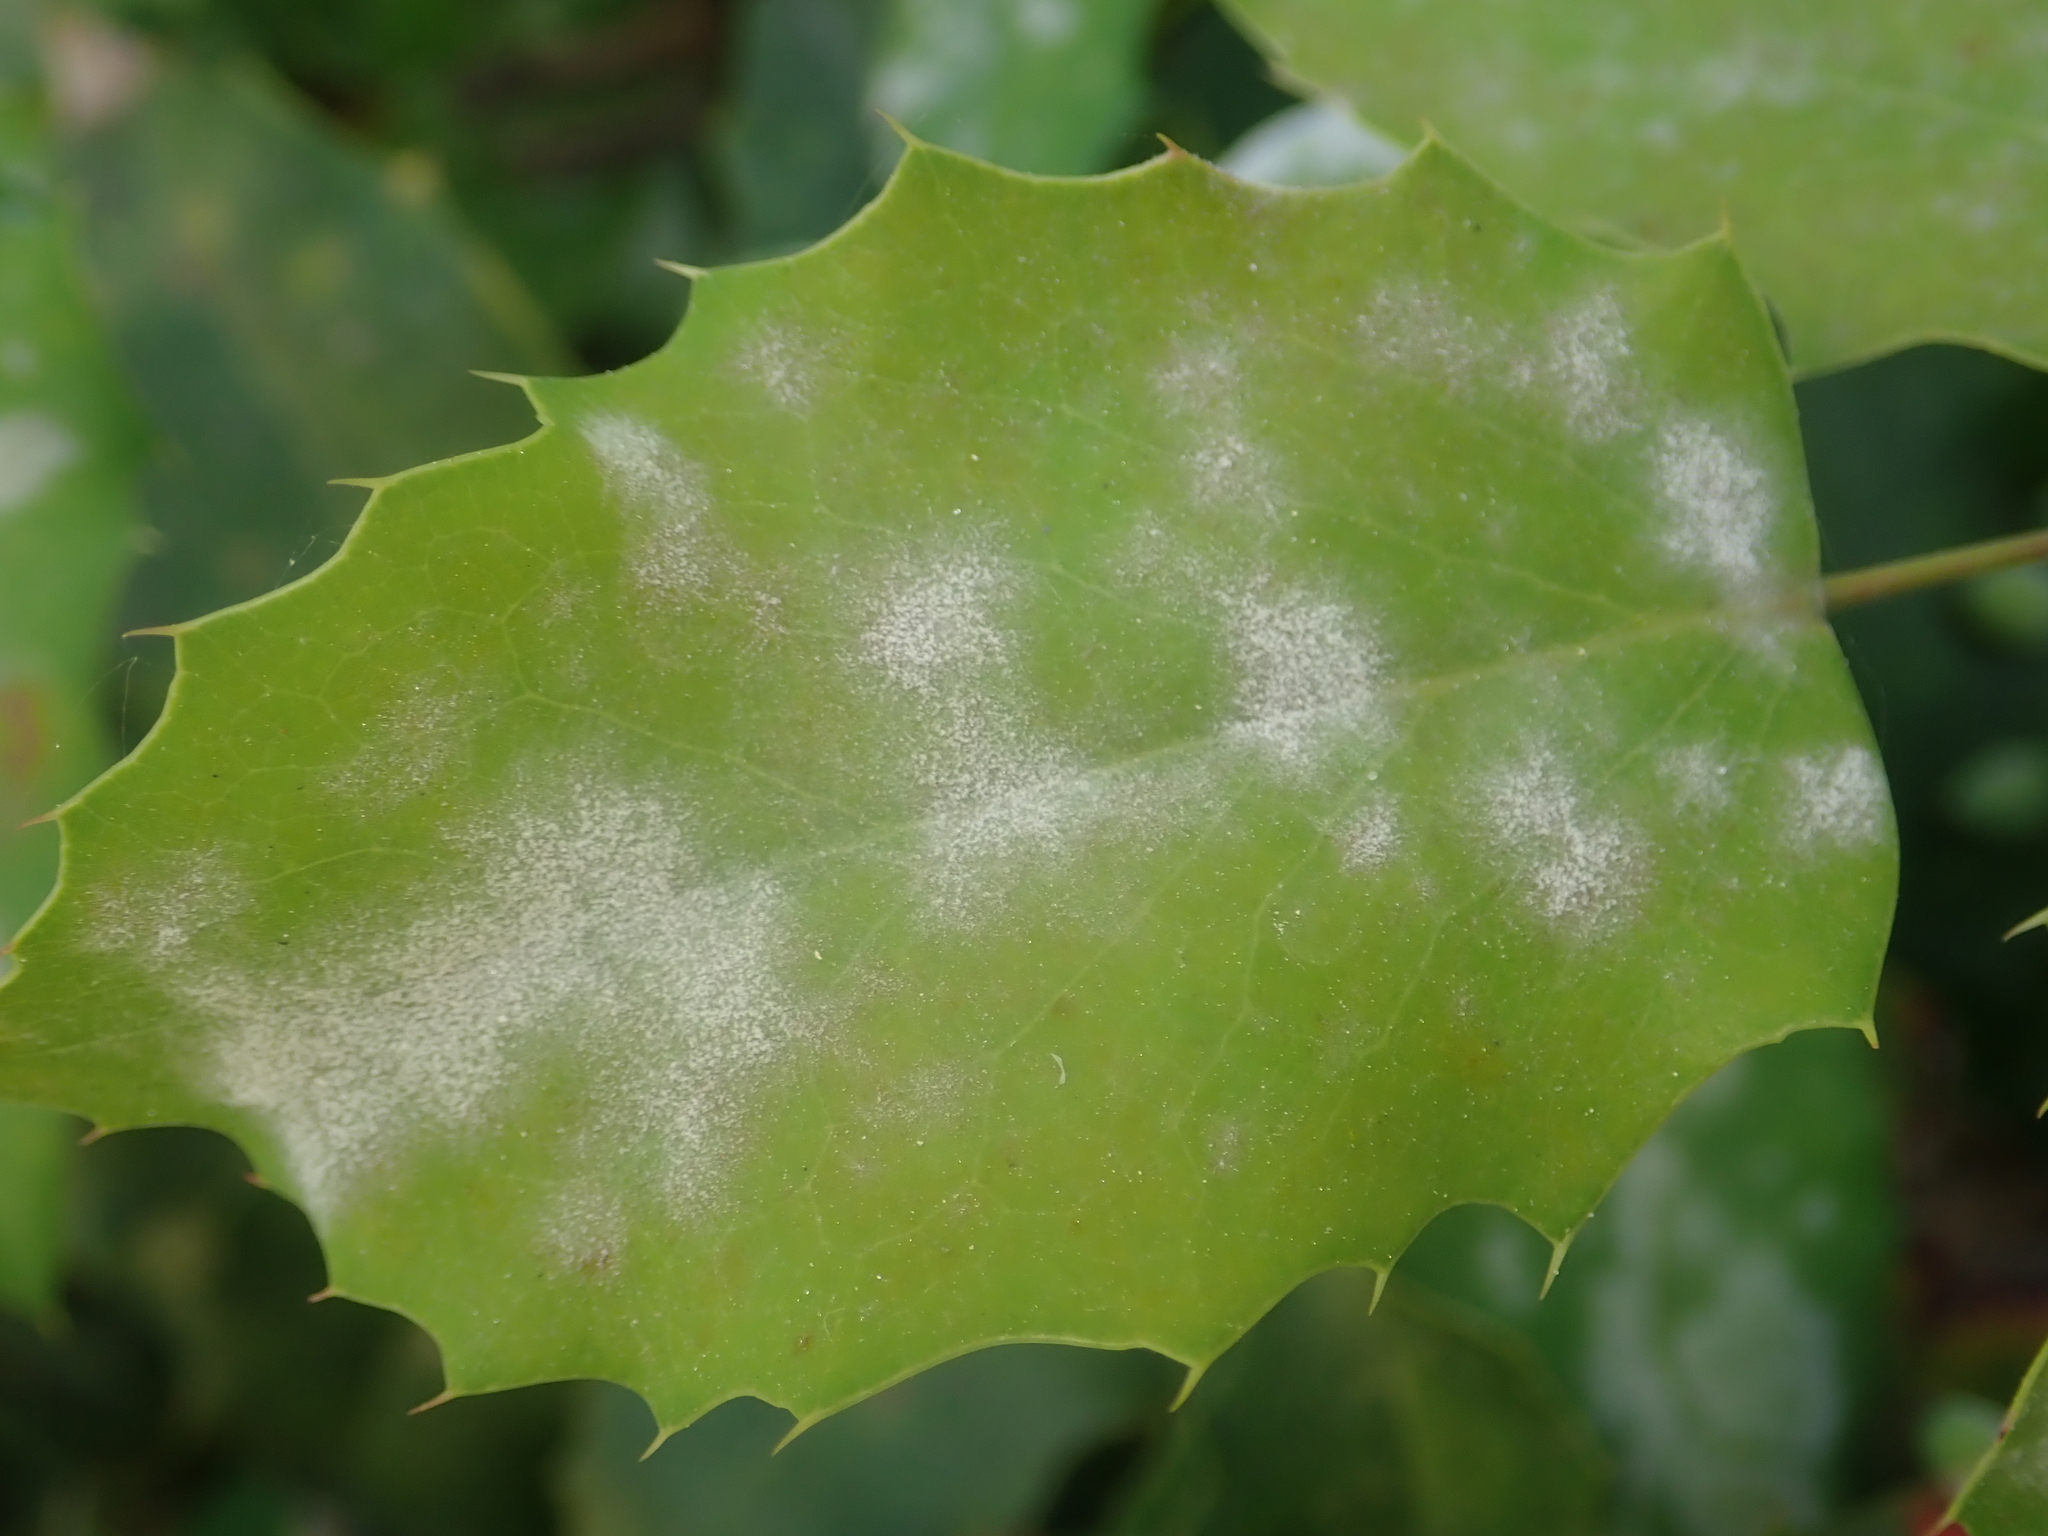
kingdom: Fungi
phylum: Ascomycota
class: Leotiomycetes
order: Helotiales
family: Erysiphaceae
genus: Erysiphe
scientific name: Erysiphe berberidis
